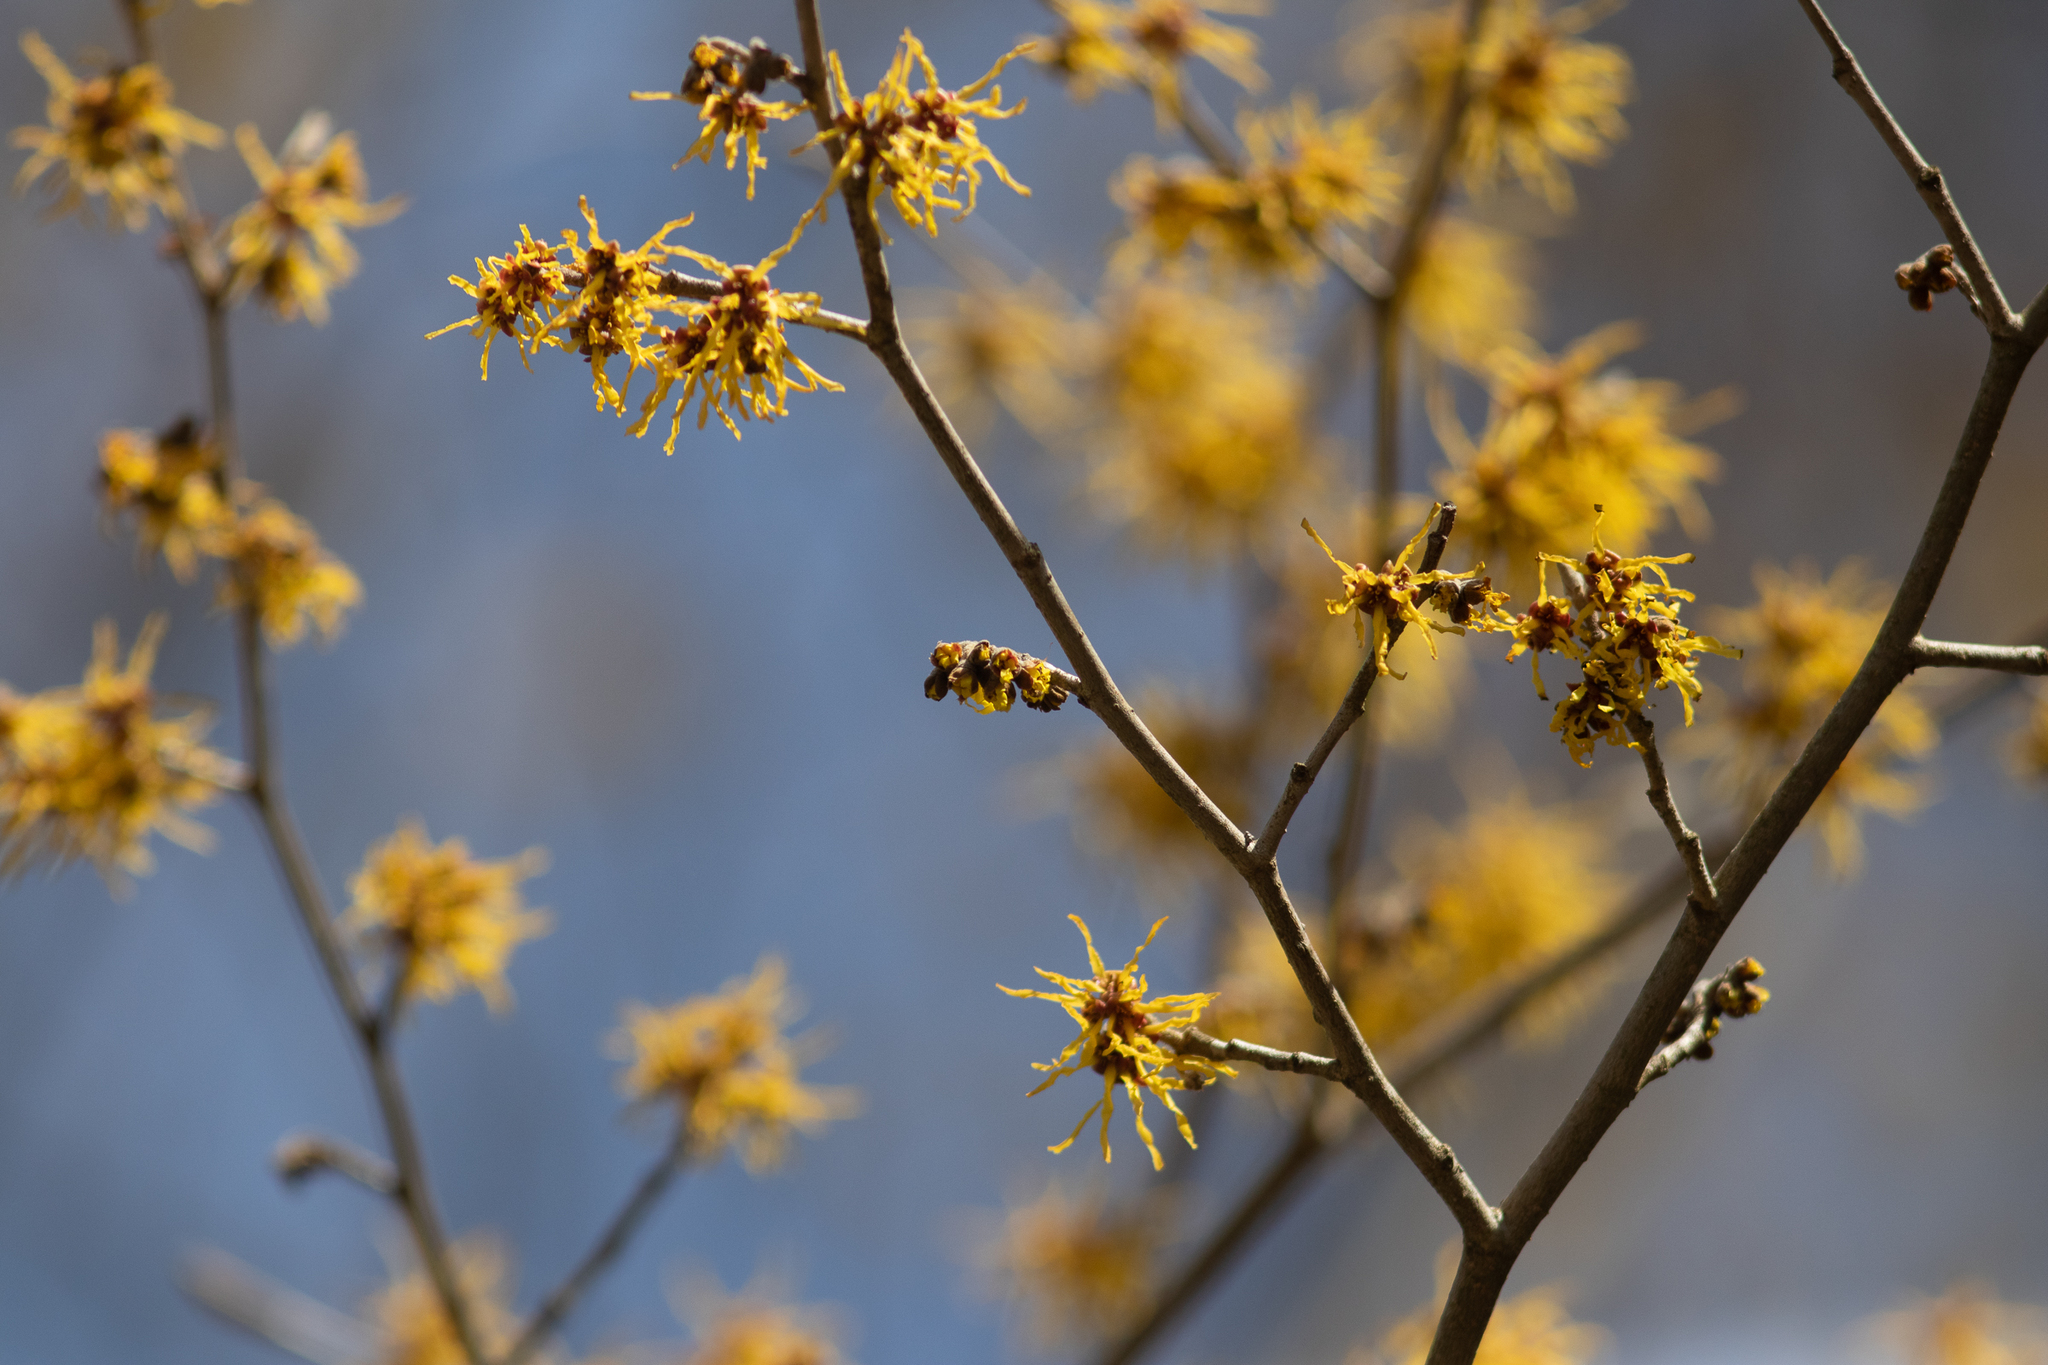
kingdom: Plantae
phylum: Tracheophyta
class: Magnoliopsida
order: Saxifragales
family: Hamamelidaceae
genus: Hamamelis
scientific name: Hamamelis virginiana
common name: Witch-hazel
